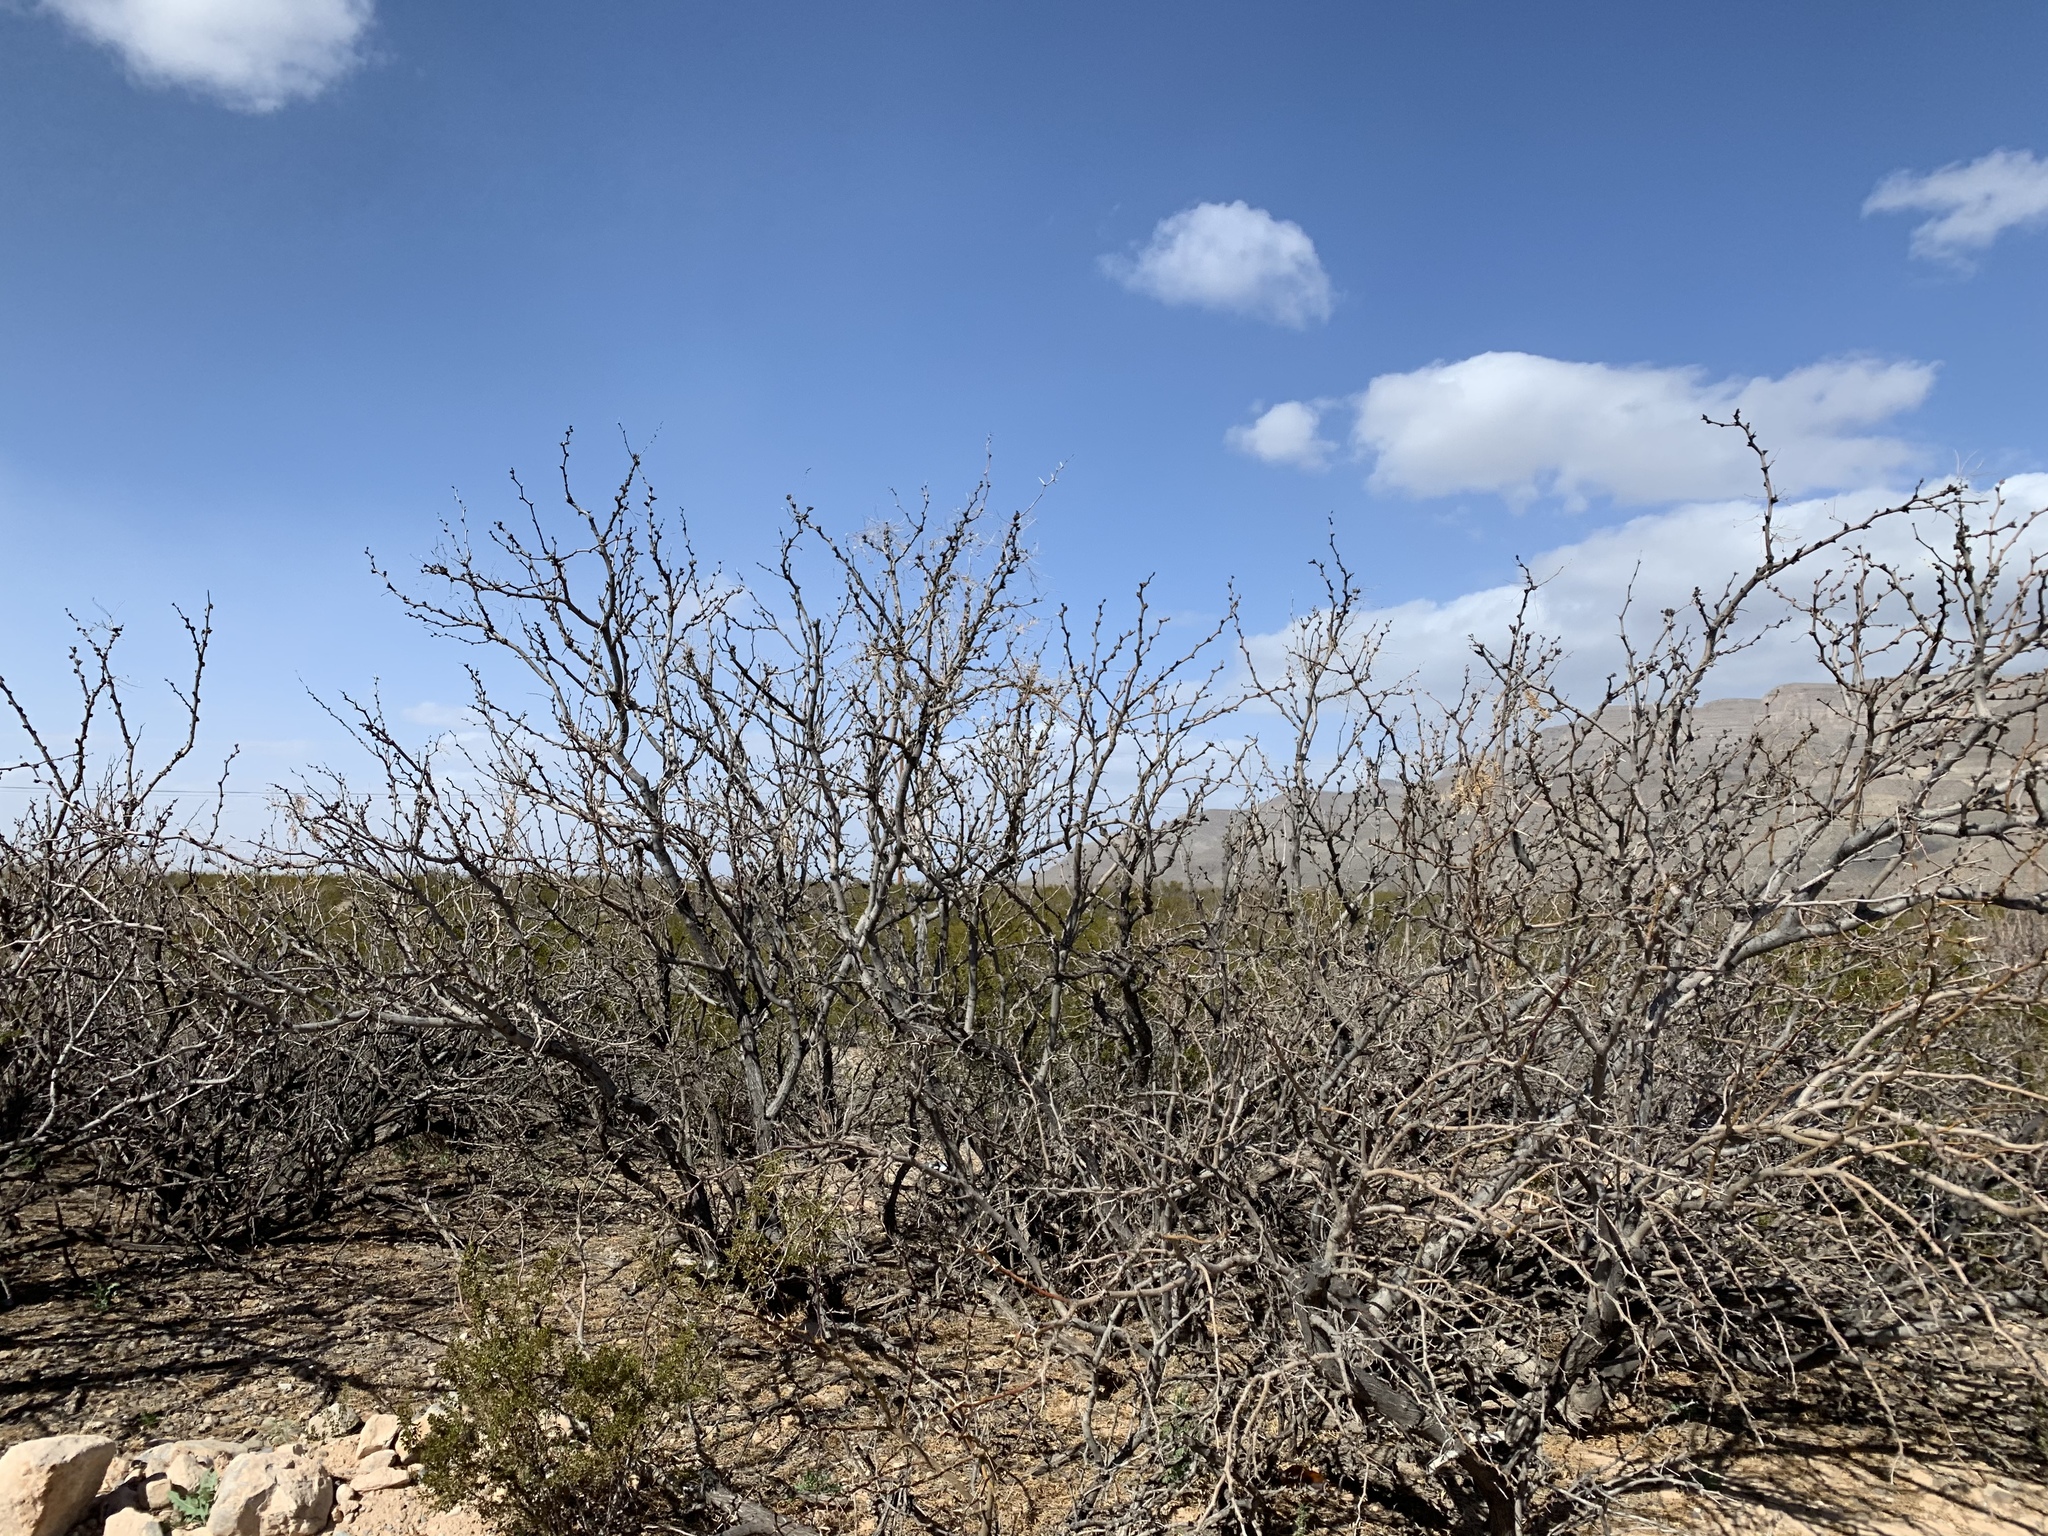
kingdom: Plantae
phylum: Tracheophyta
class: Magnoliopsida
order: Fabales
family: Fabaceae
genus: Prosopis
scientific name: Prosopis glandulosa
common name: Honey mesquite
